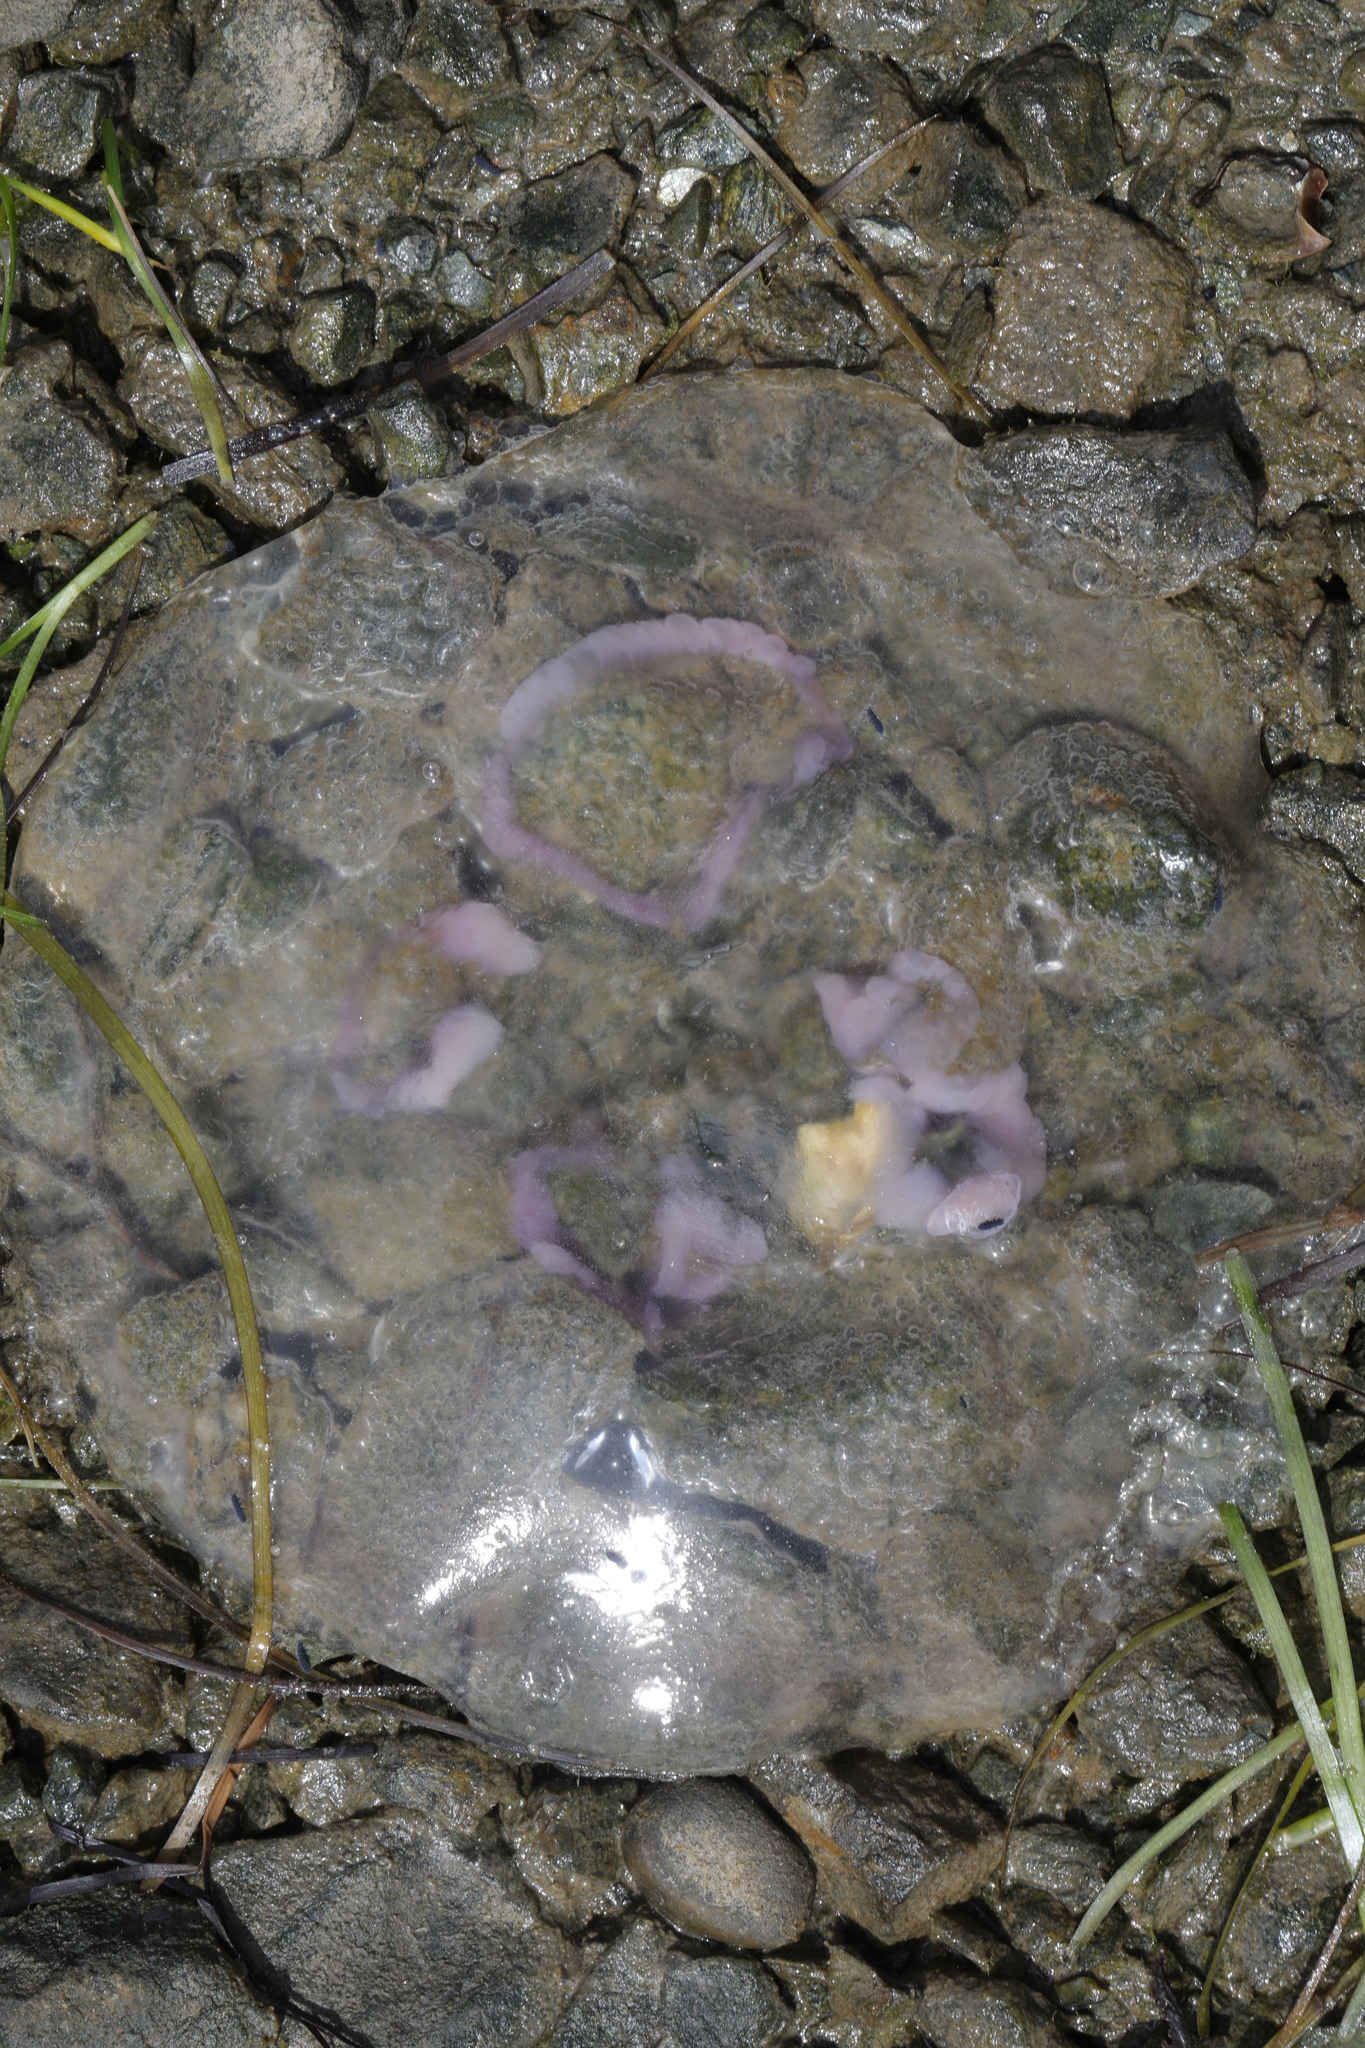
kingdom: Animalia
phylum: Cnidaria
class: Scyphozoa
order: Semaeostomeae
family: Ulmaridae
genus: Aurelia
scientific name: Aurelia aurita
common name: Moon jellyfish
